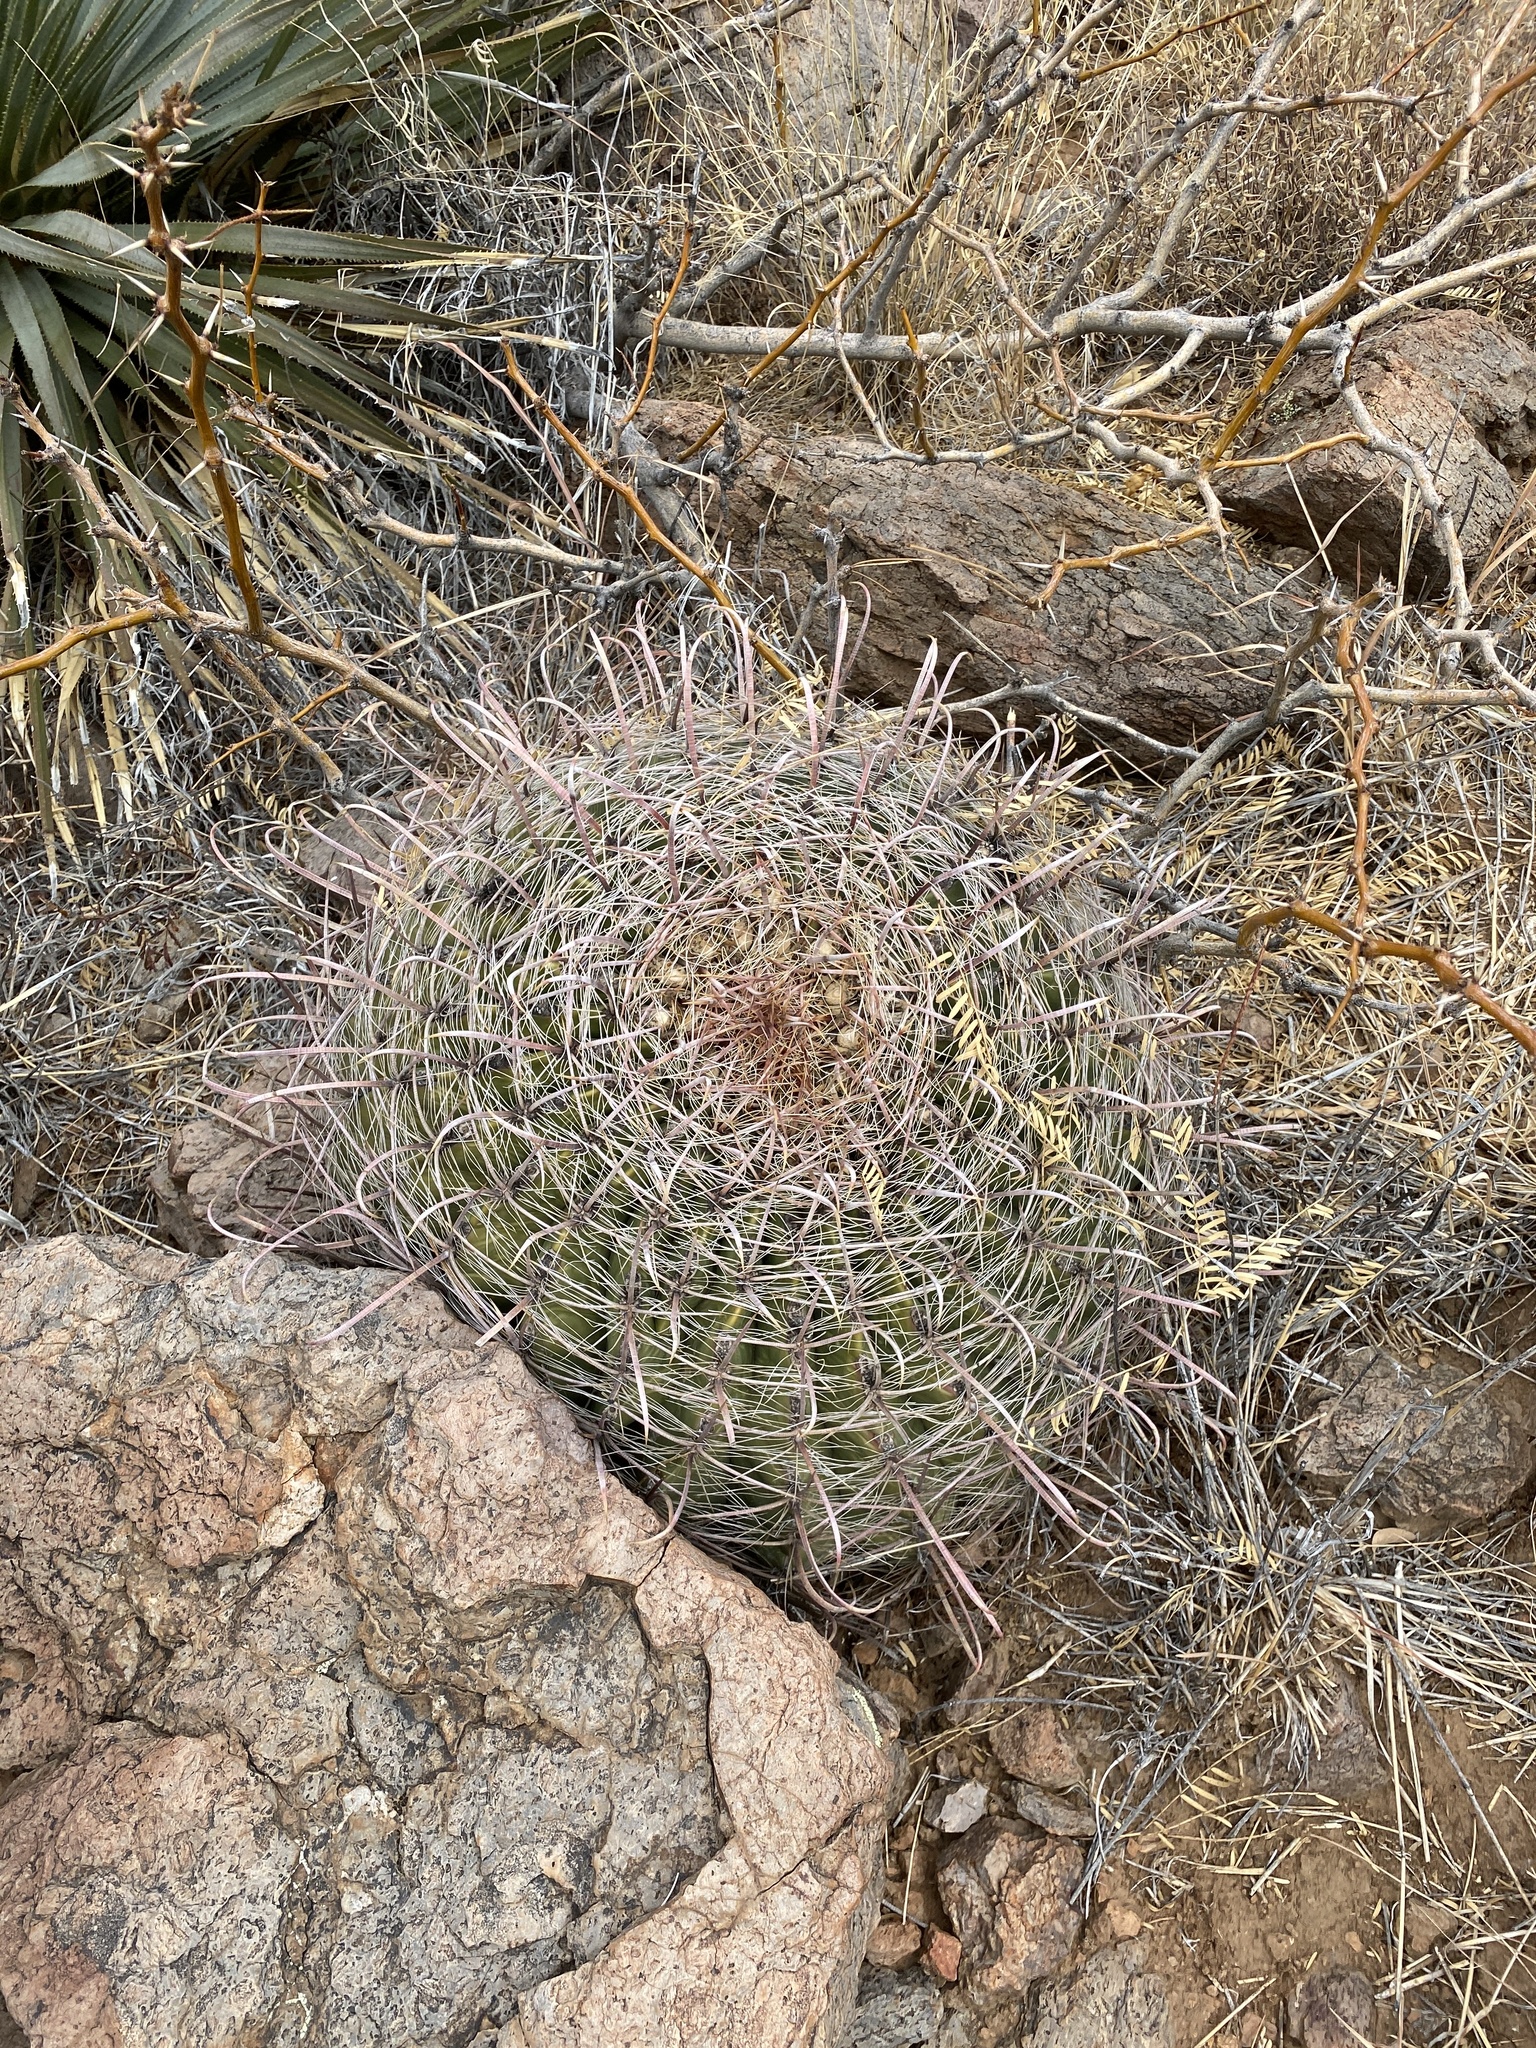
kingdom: Plantae
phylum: Tracheophyta
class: Magnoliopsida
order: Caryophyllales
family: Cactaceae
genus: Ferocactus
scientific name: Ferocactus wislizeni
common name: Candy barrel cactus
